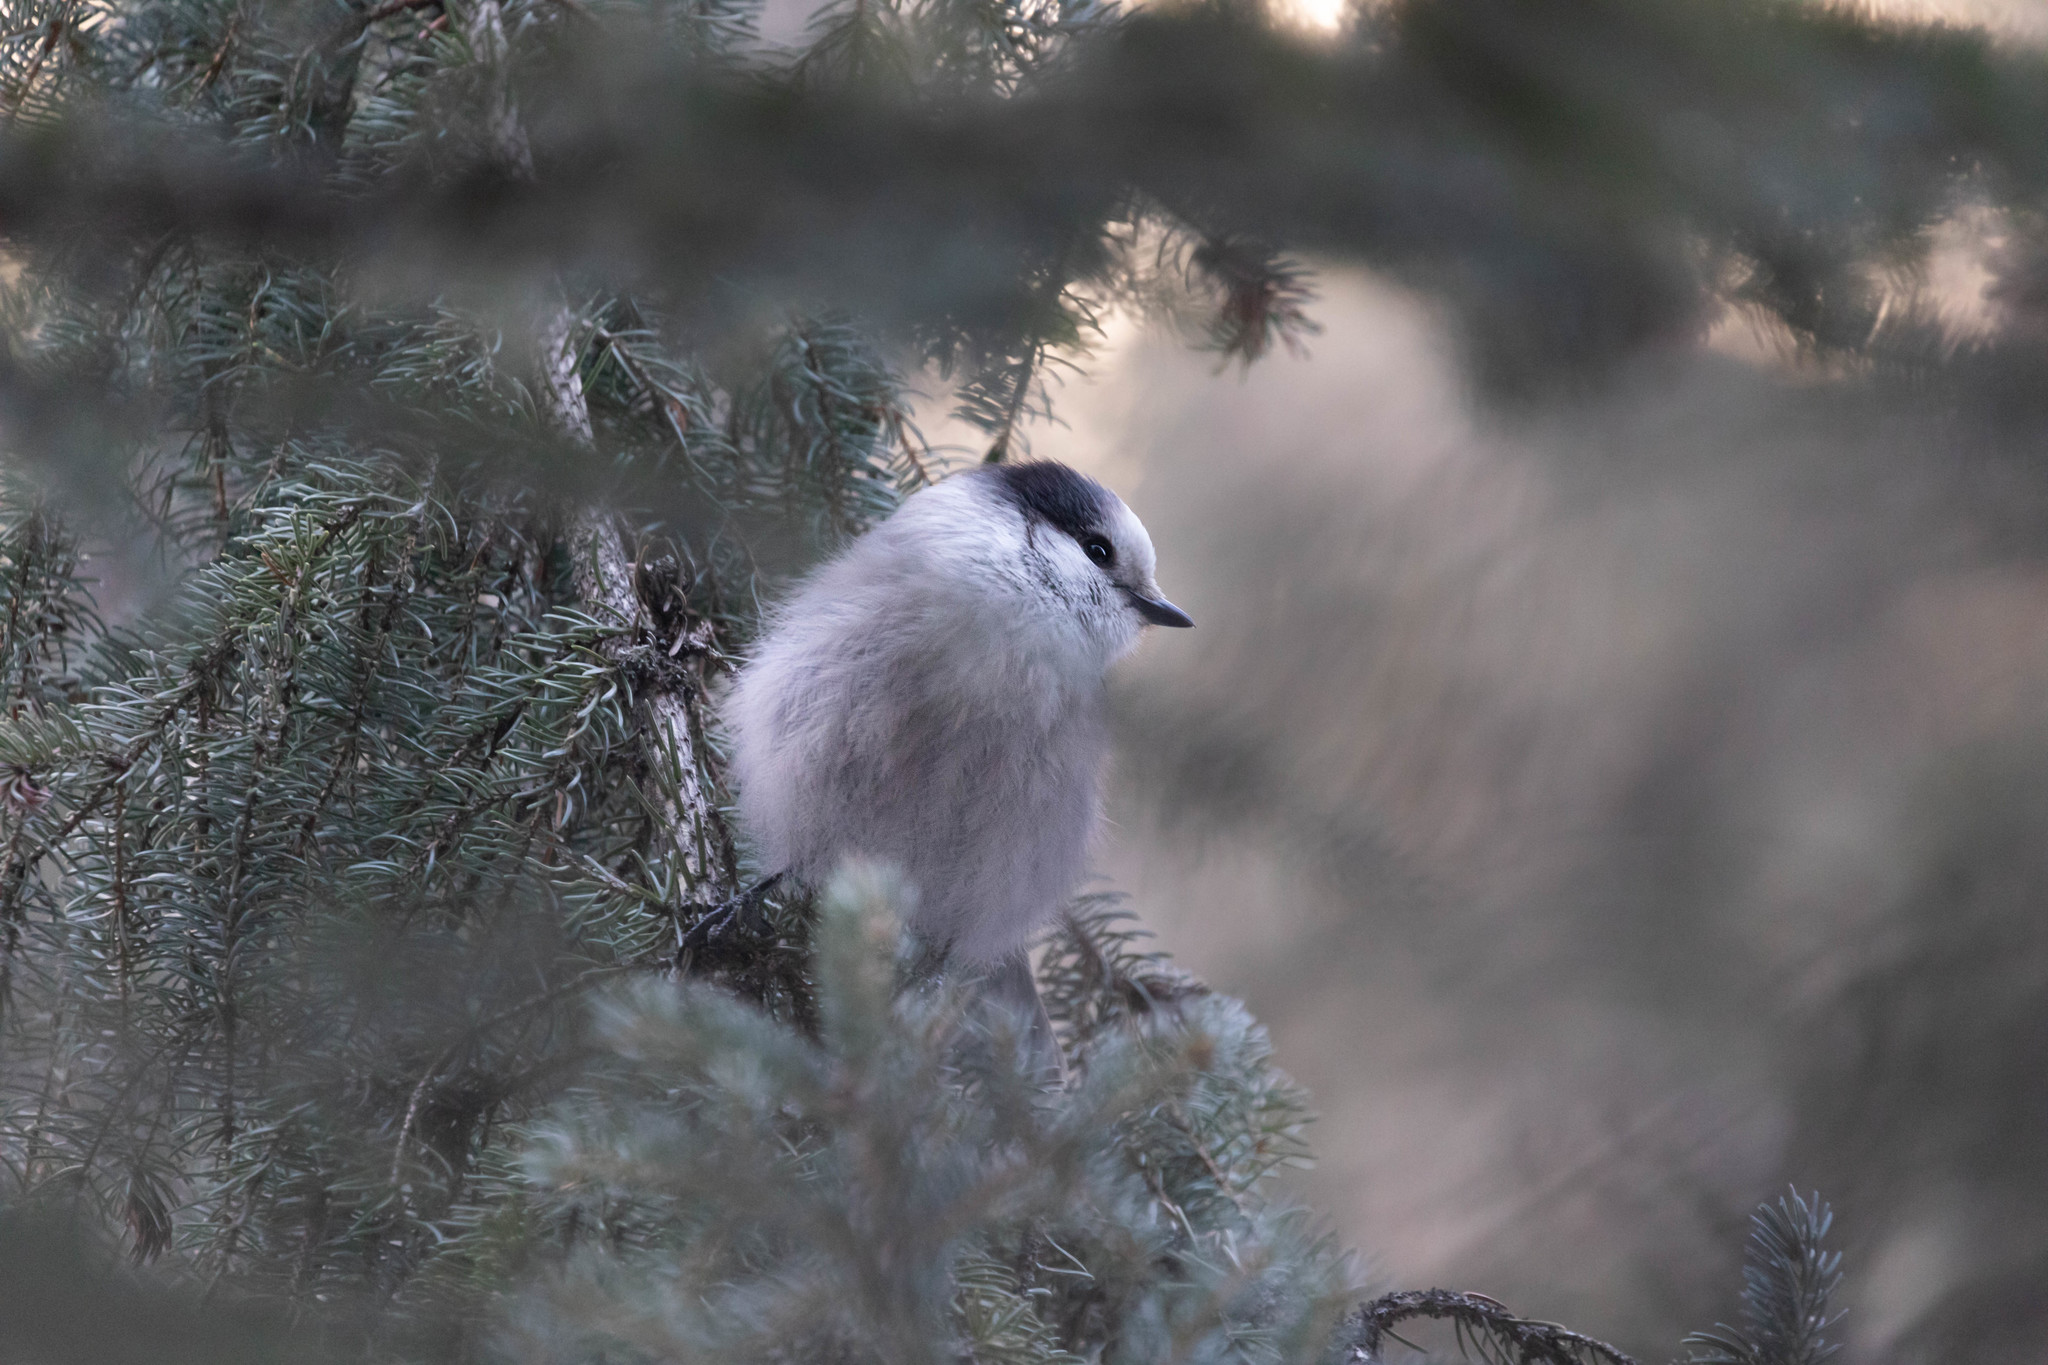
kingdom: Animalia
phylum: Chordata
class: Aves
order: Passeriformes
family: Corvidae
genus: Perisoreus
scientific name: Perisoreus canadensis
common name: Gray jay
